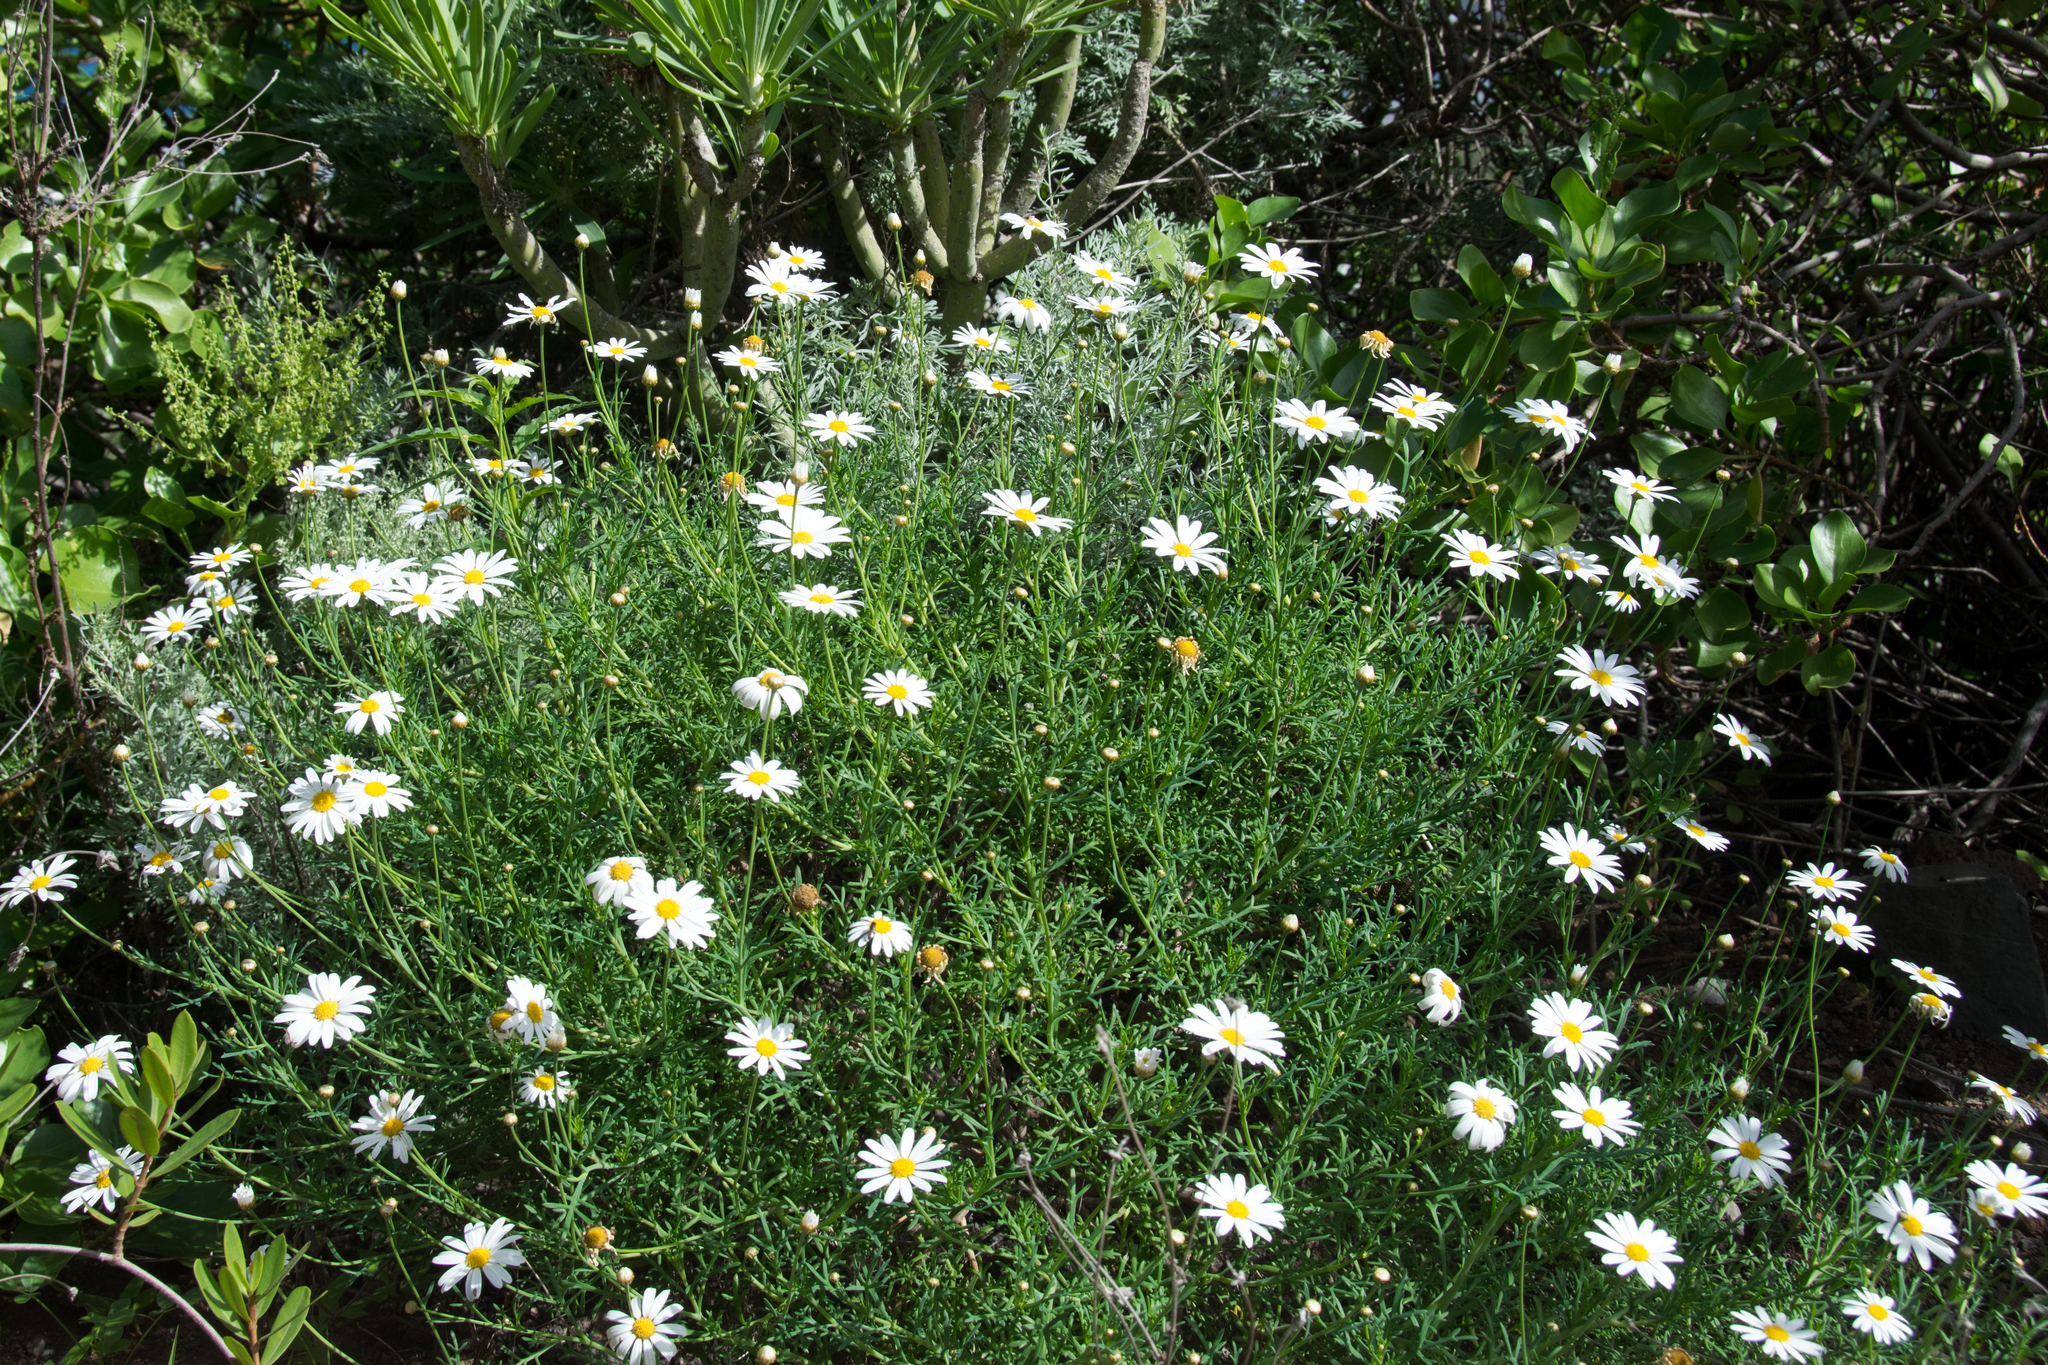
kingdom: Plantae
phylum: Tracheophyta
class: Magnoliopsida
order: Asterales
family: Asteraceae
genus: Argyranthemum
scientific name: Argyranthemum frutescens
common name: Paris daisy
